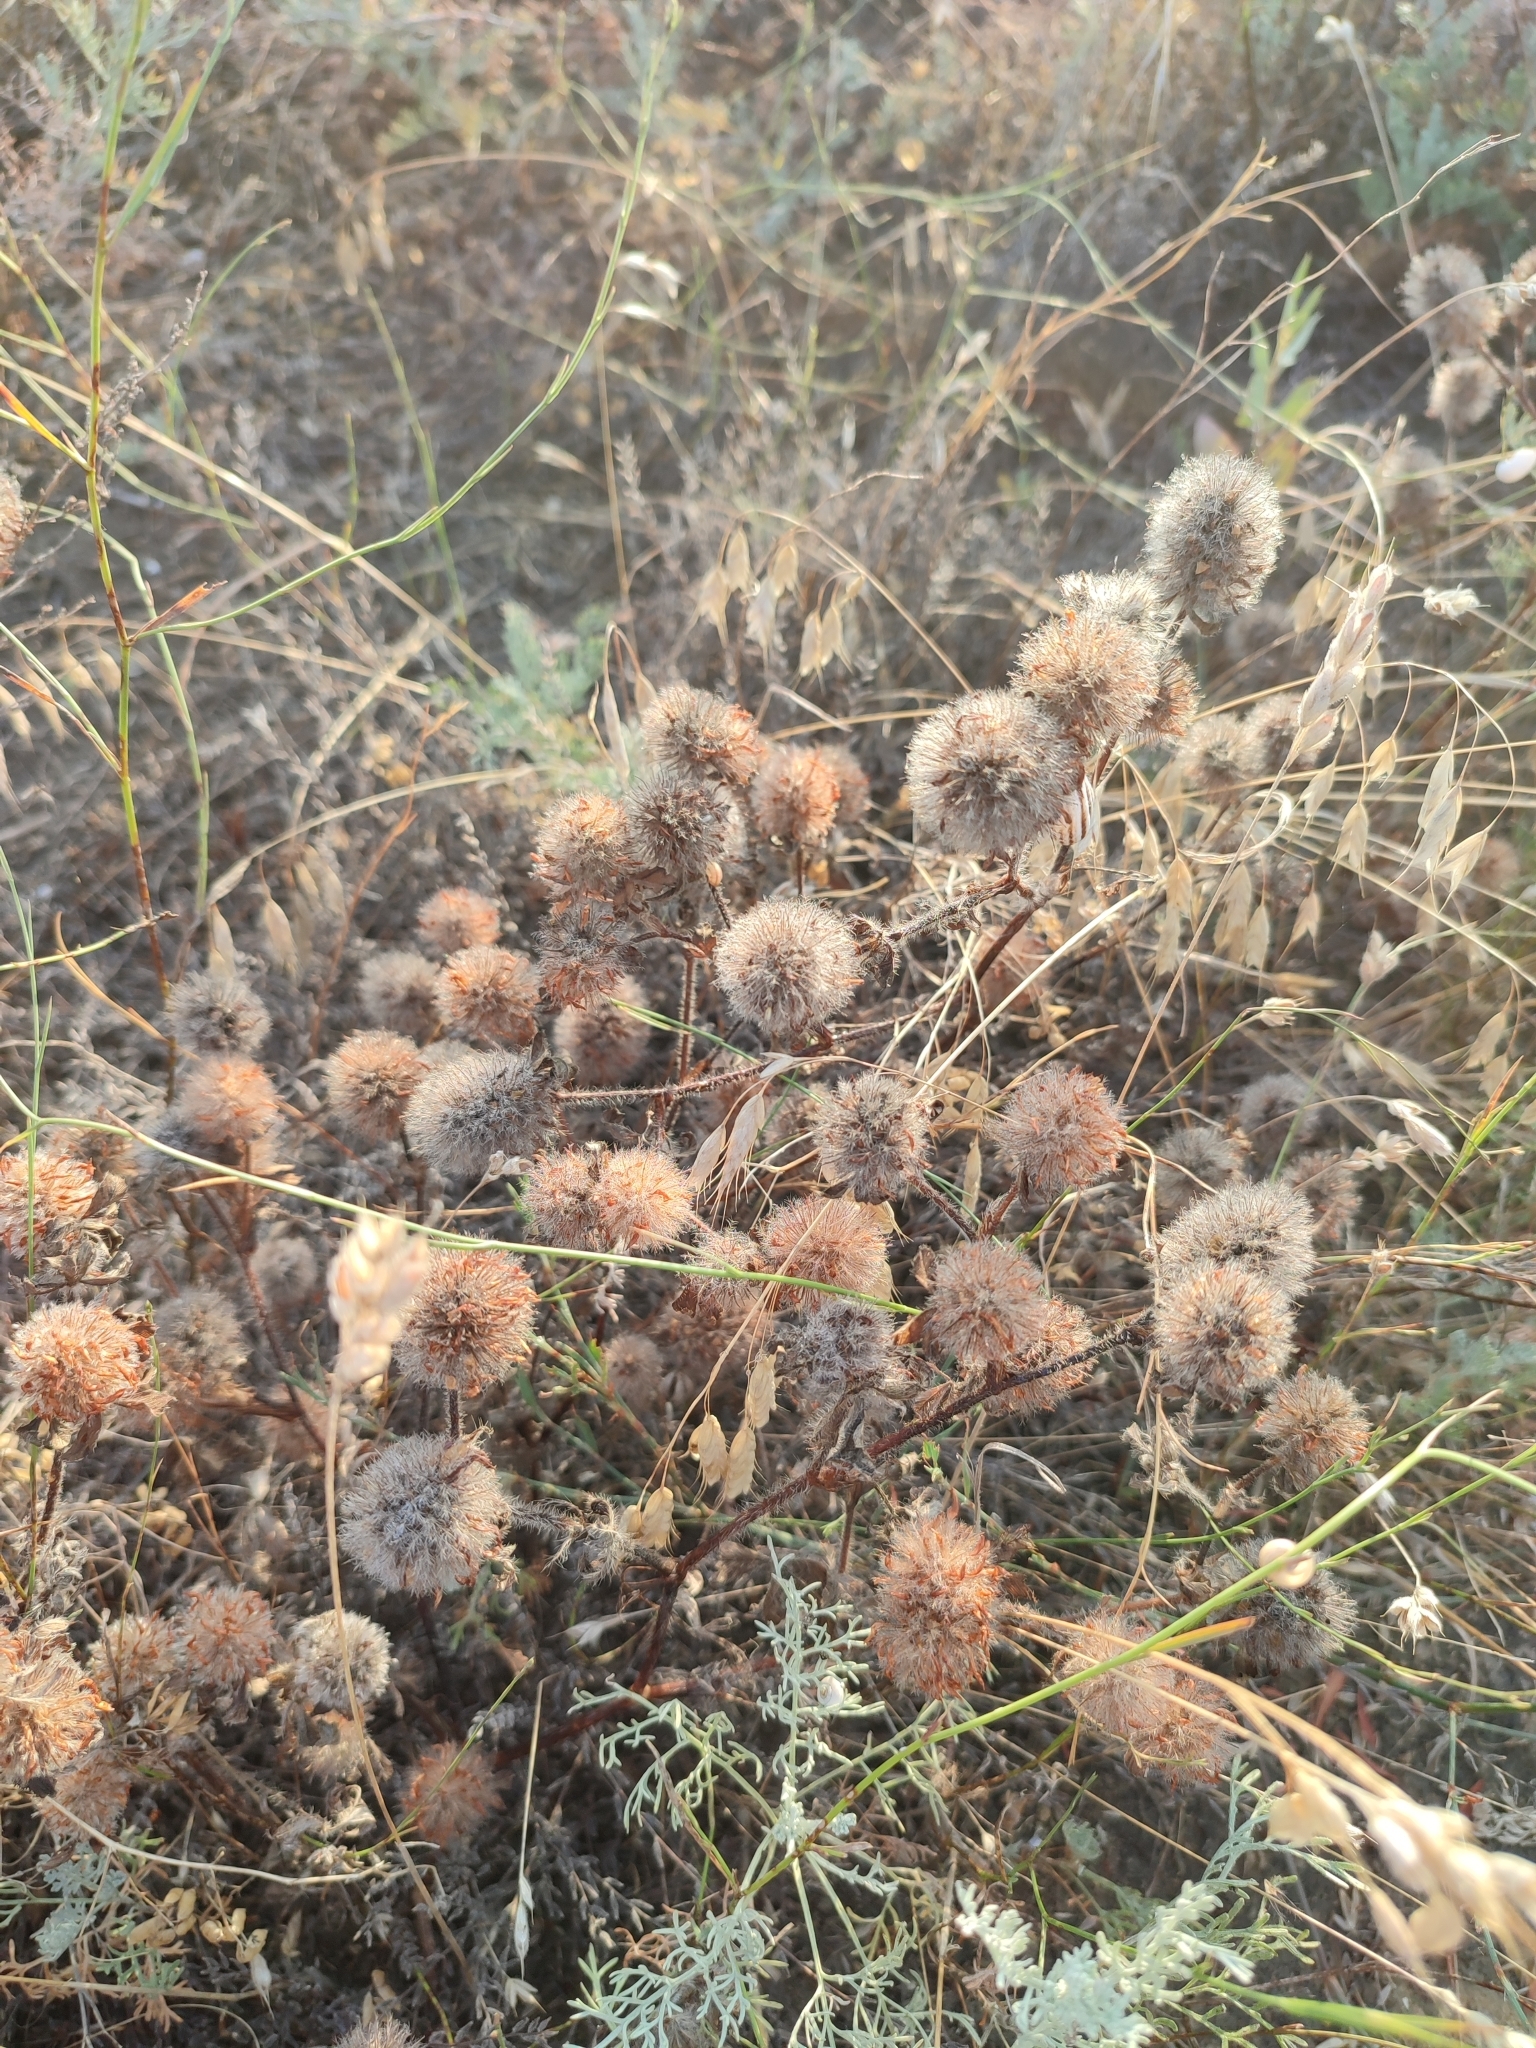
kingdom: Plantae
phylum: Tracheophyta
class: Magnoliopsida
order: Fabales
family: Fabaceae
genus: Trifolium
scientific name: Trifolium diffusum
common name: Diffuse clover
